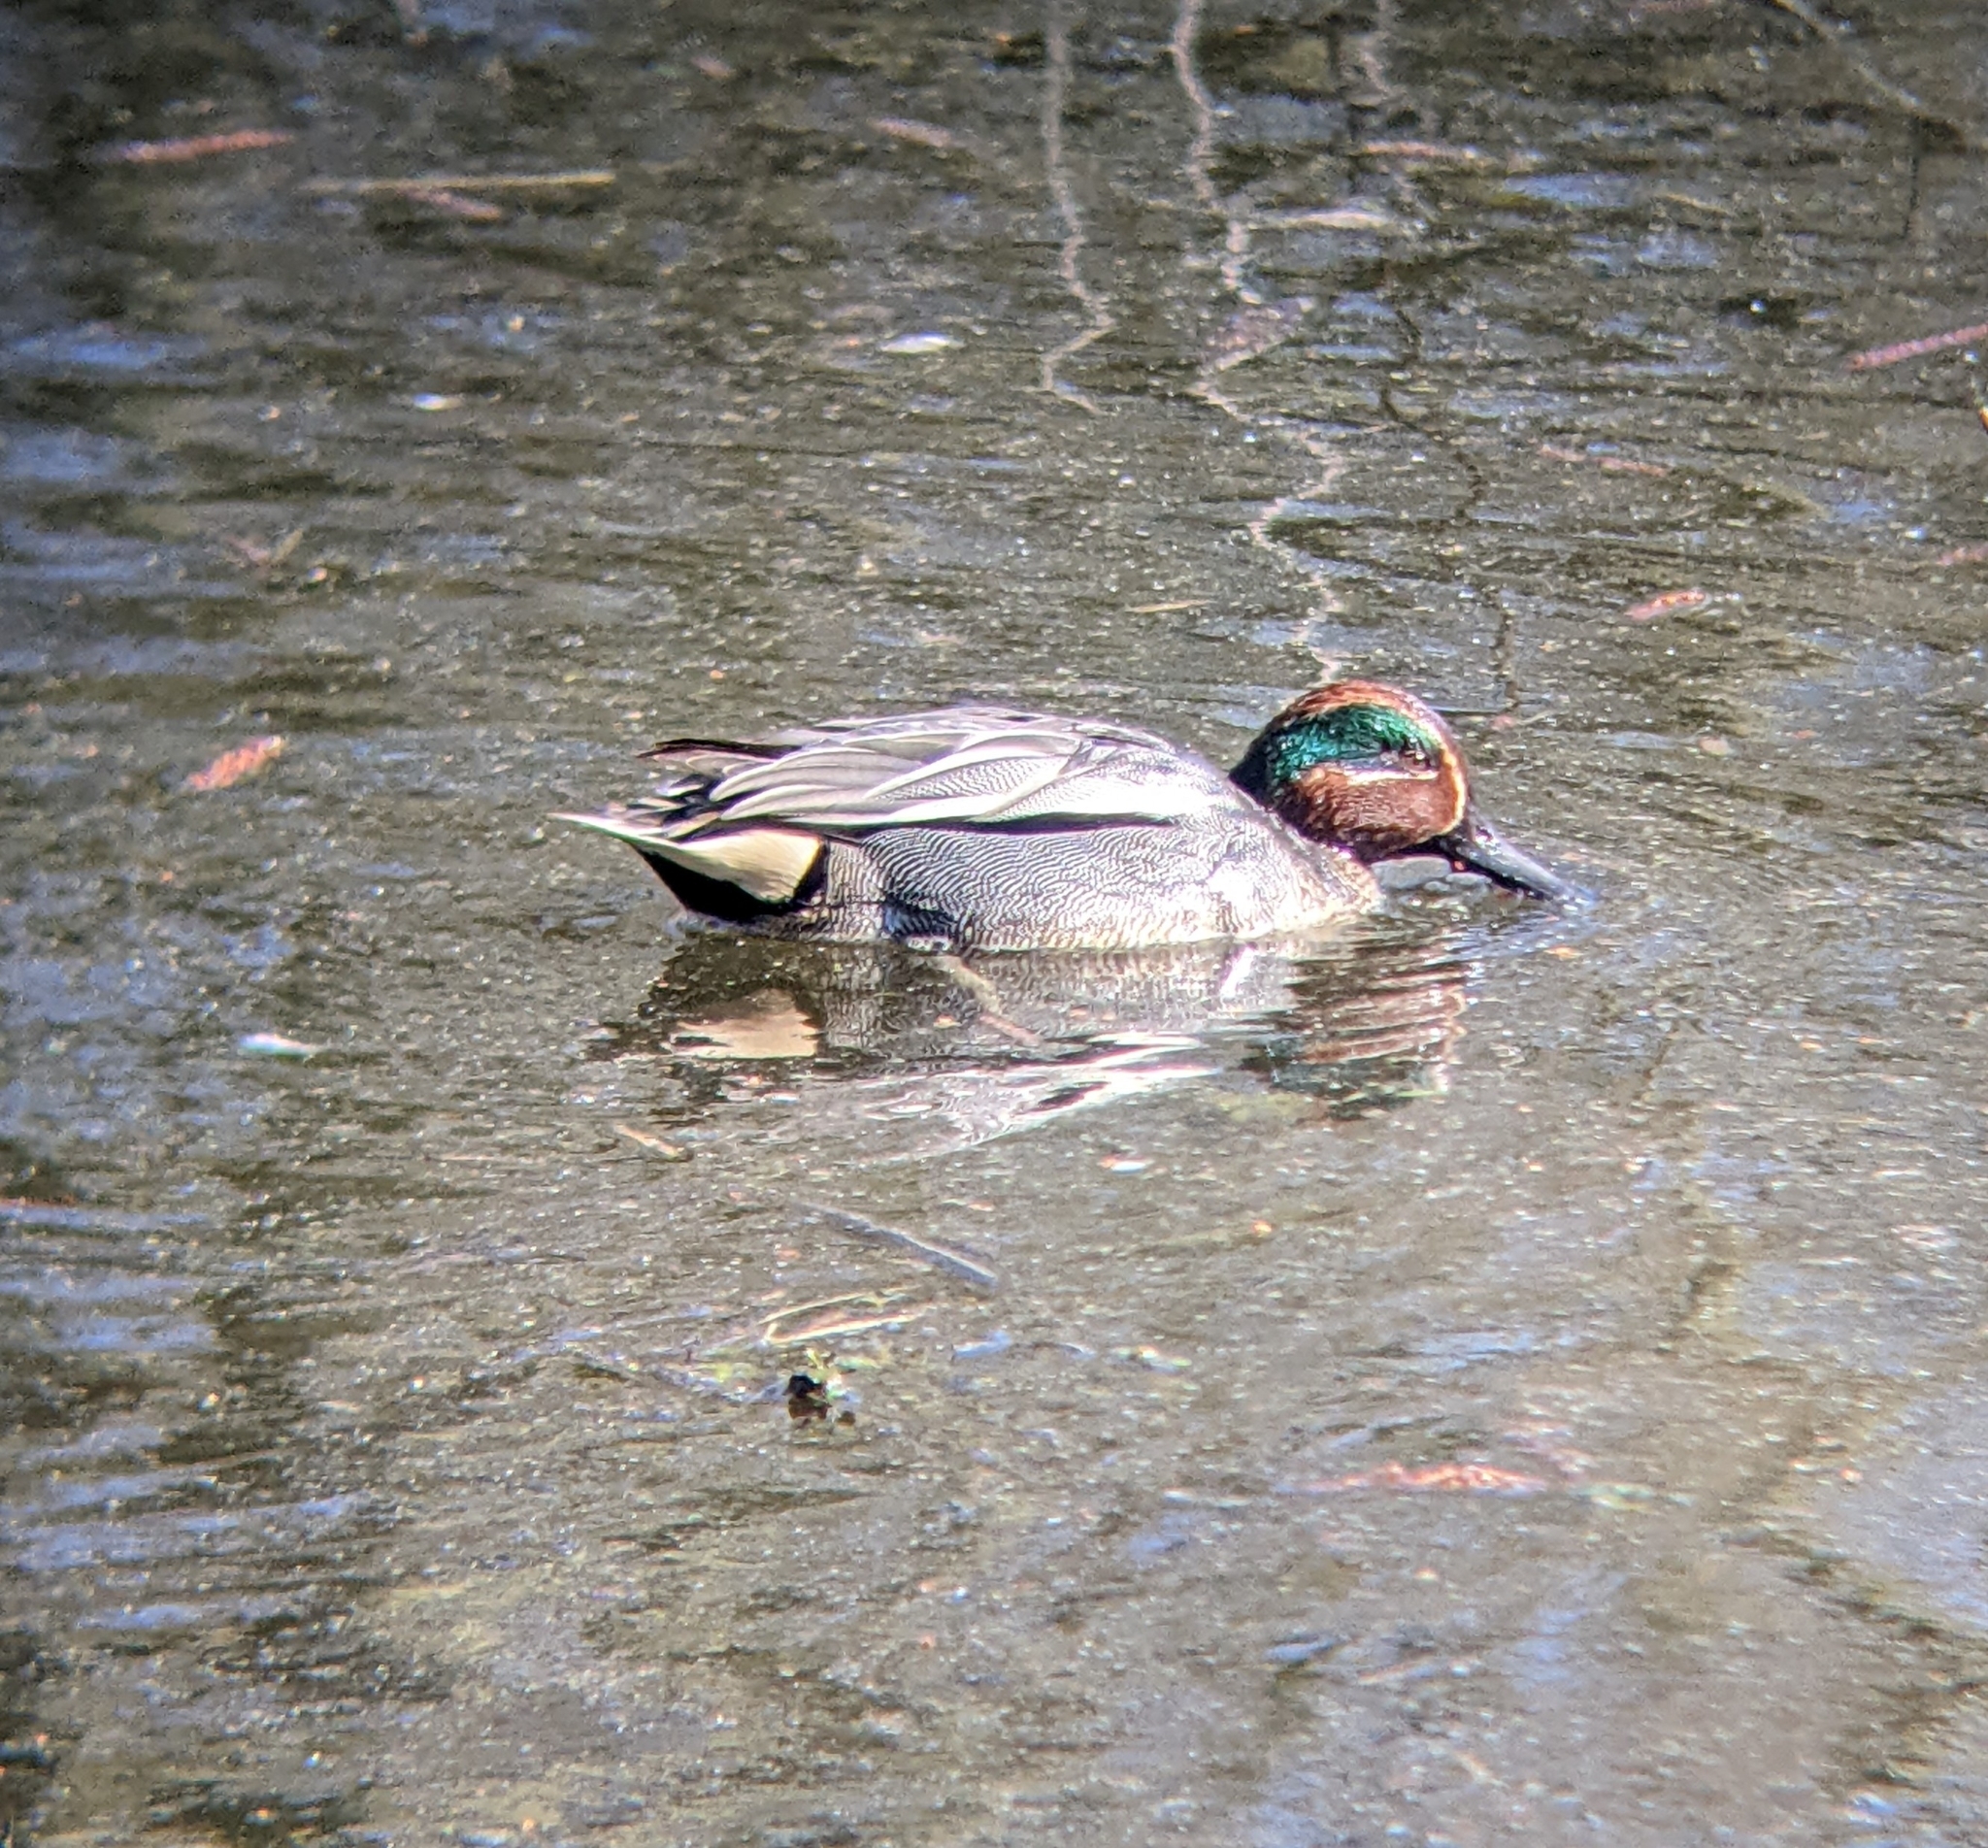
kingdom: Animalia
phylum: Chordata
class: Aves
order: Anseriformes
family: Anatidae
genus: Anas
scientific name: Anas crecca
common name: Eurasian teal
